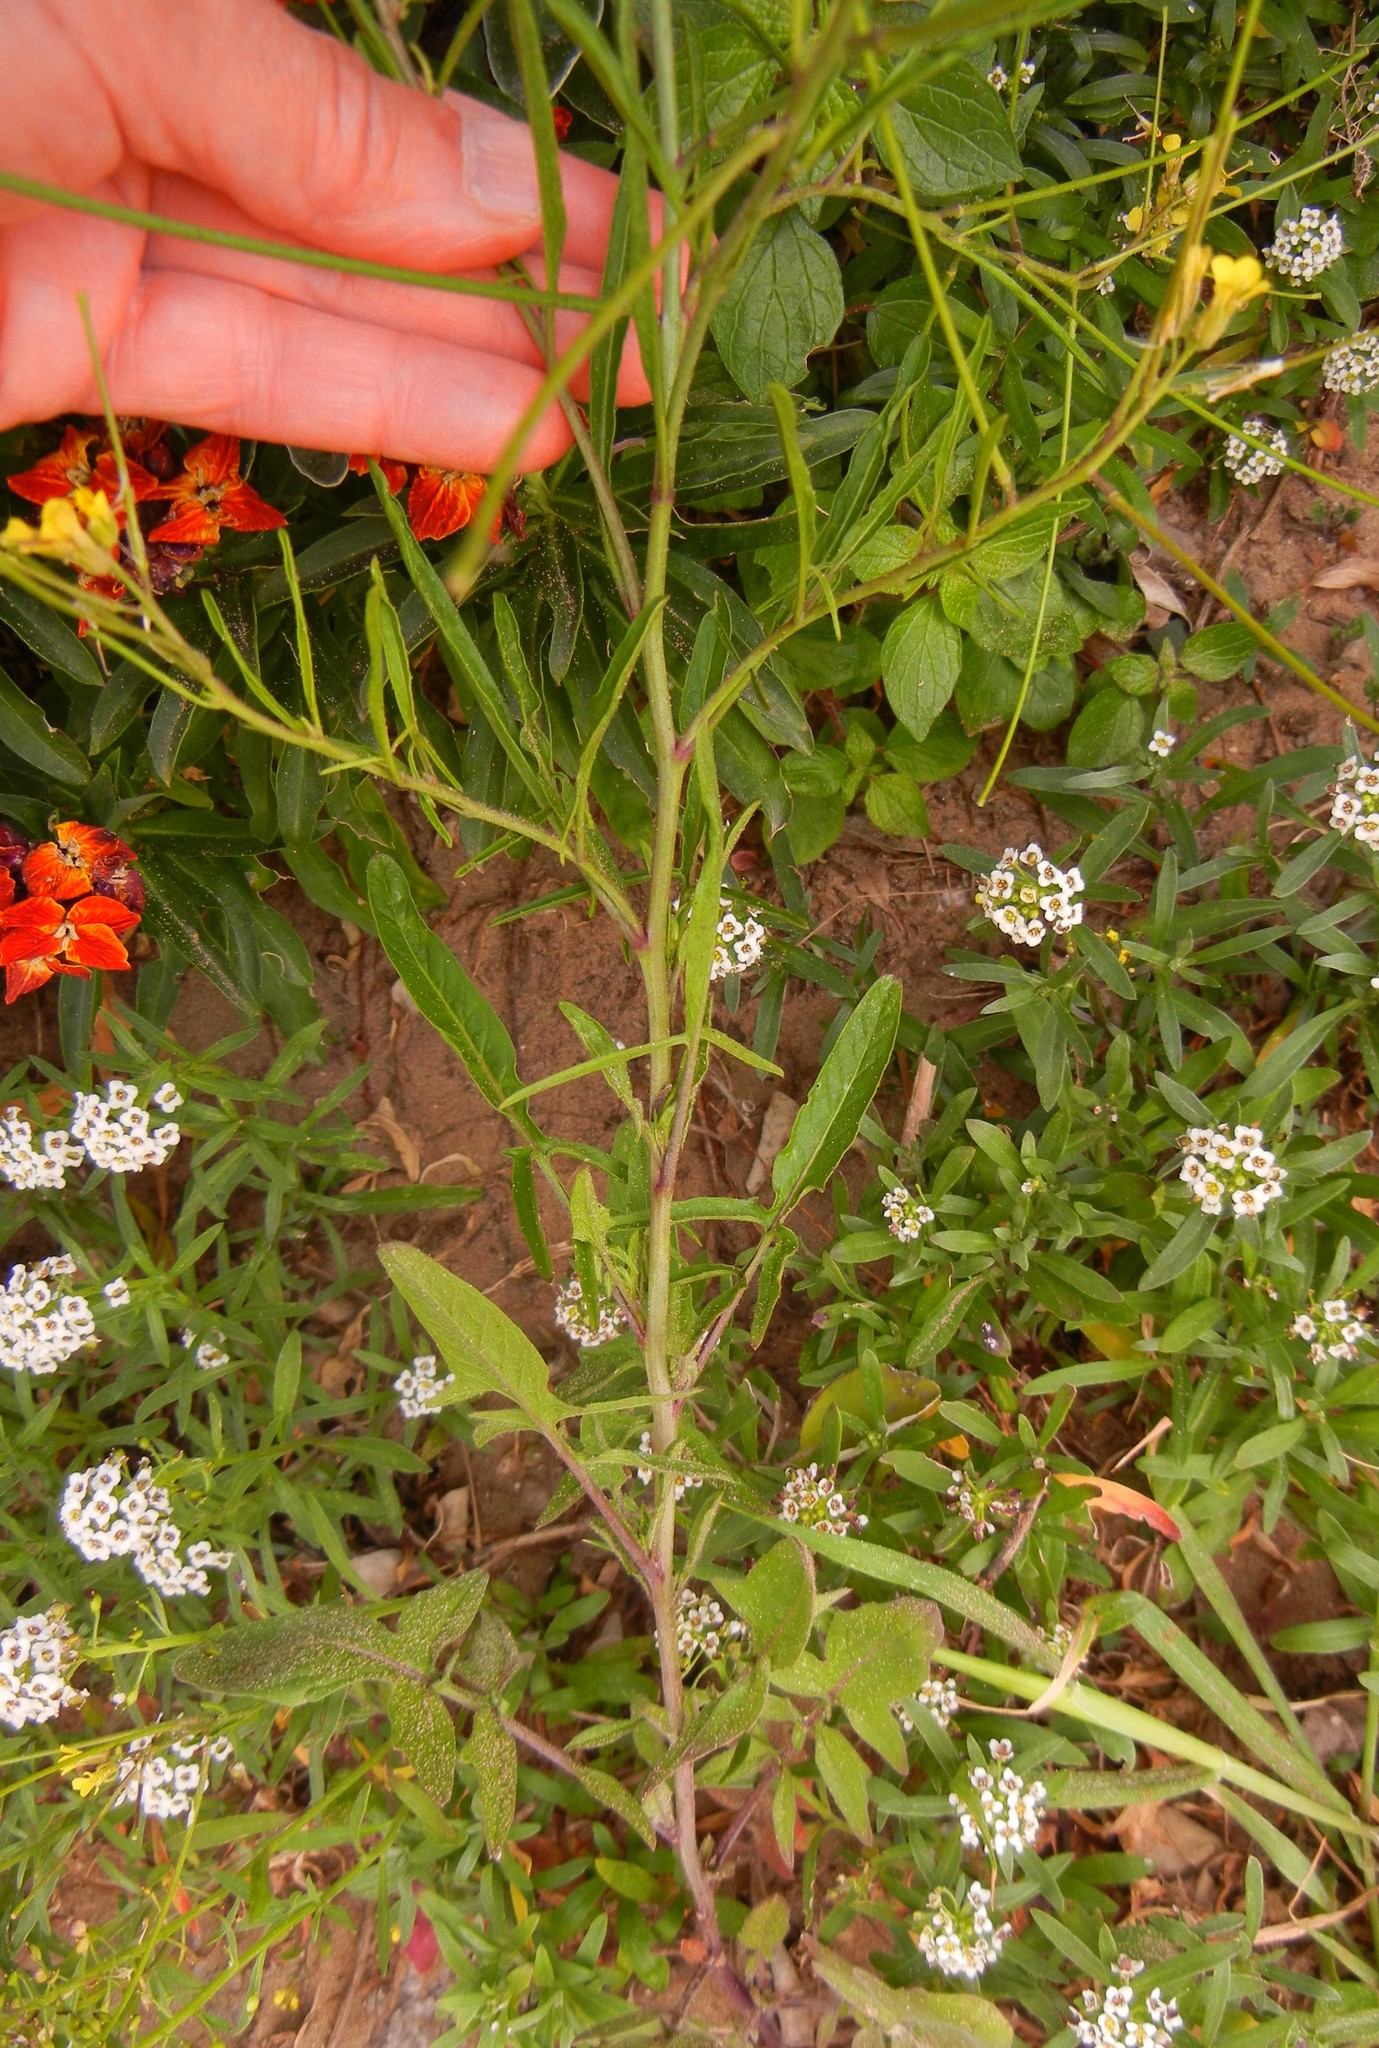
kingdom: Plantae
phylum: Tracheophyta
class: Magnoliopsida
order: Brassicales
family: Brassicaceae
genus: Sisymbrium
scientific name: Sisymbrium orientale
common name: Eastern rocket
